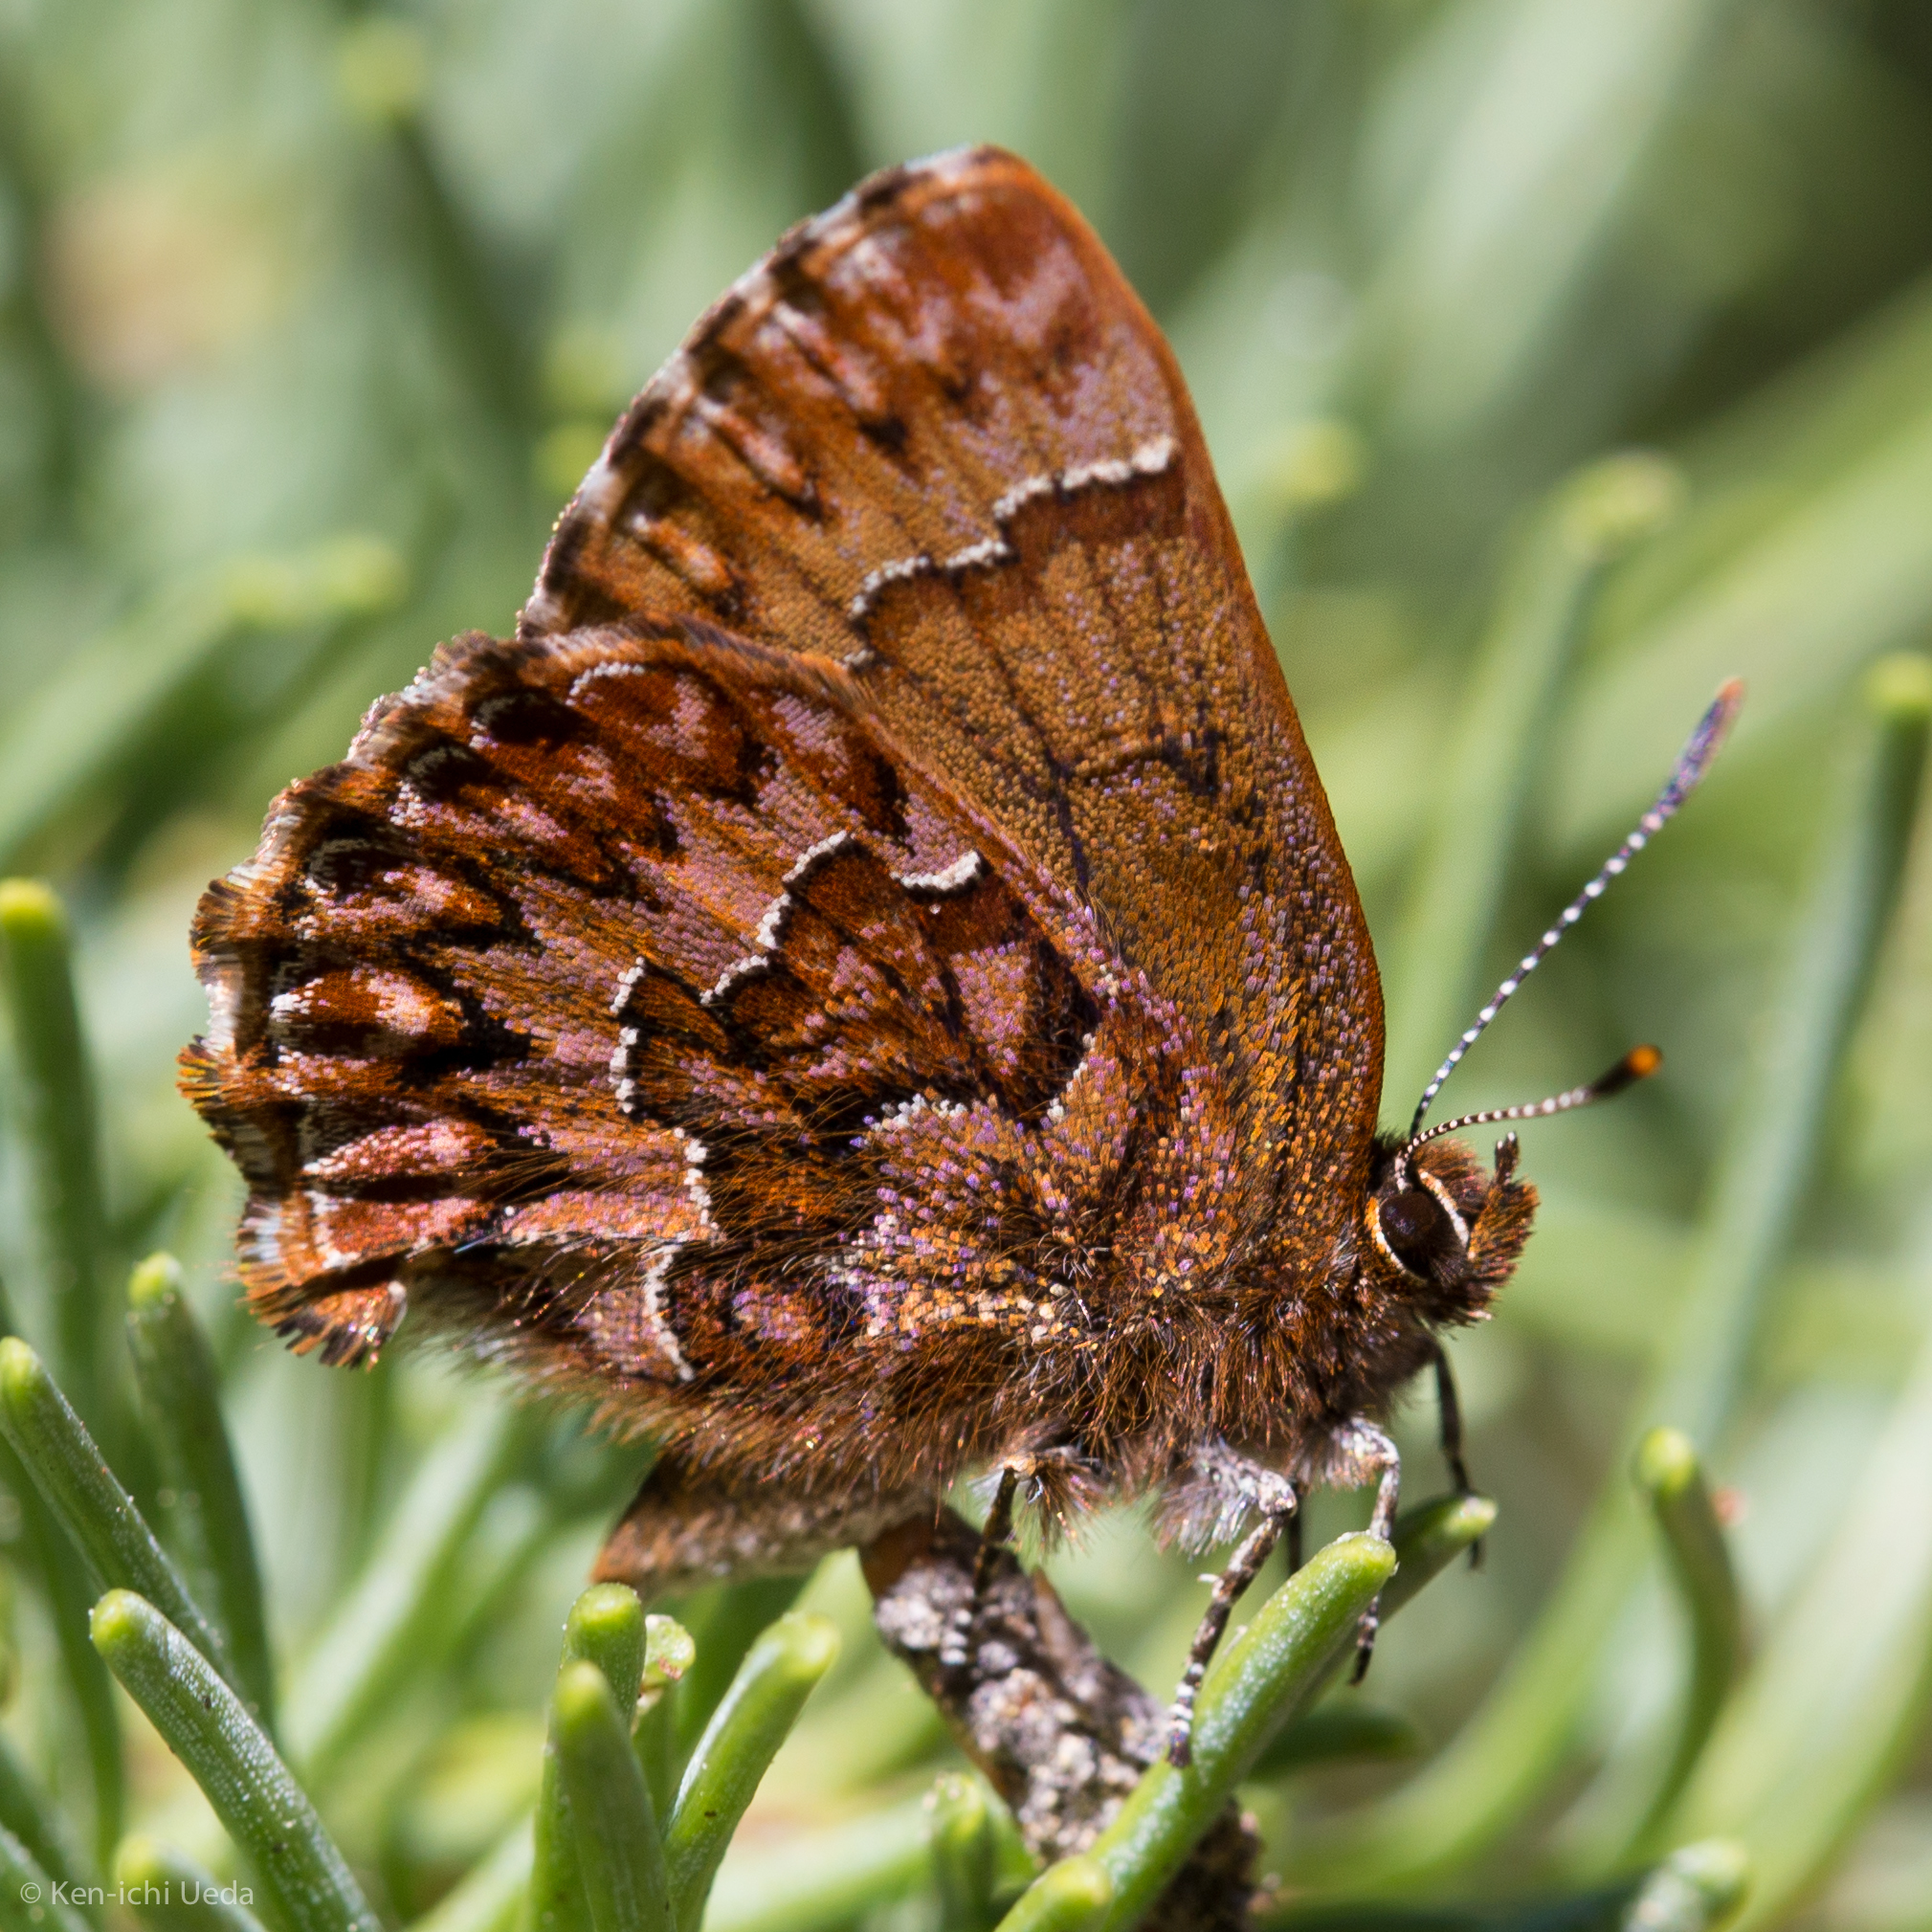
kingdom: Animalia
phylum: Arthropoda
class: Insecta
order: Lepidoptera
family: Lycaenidae
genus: Incisalia
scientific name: Incisalia eryphon
